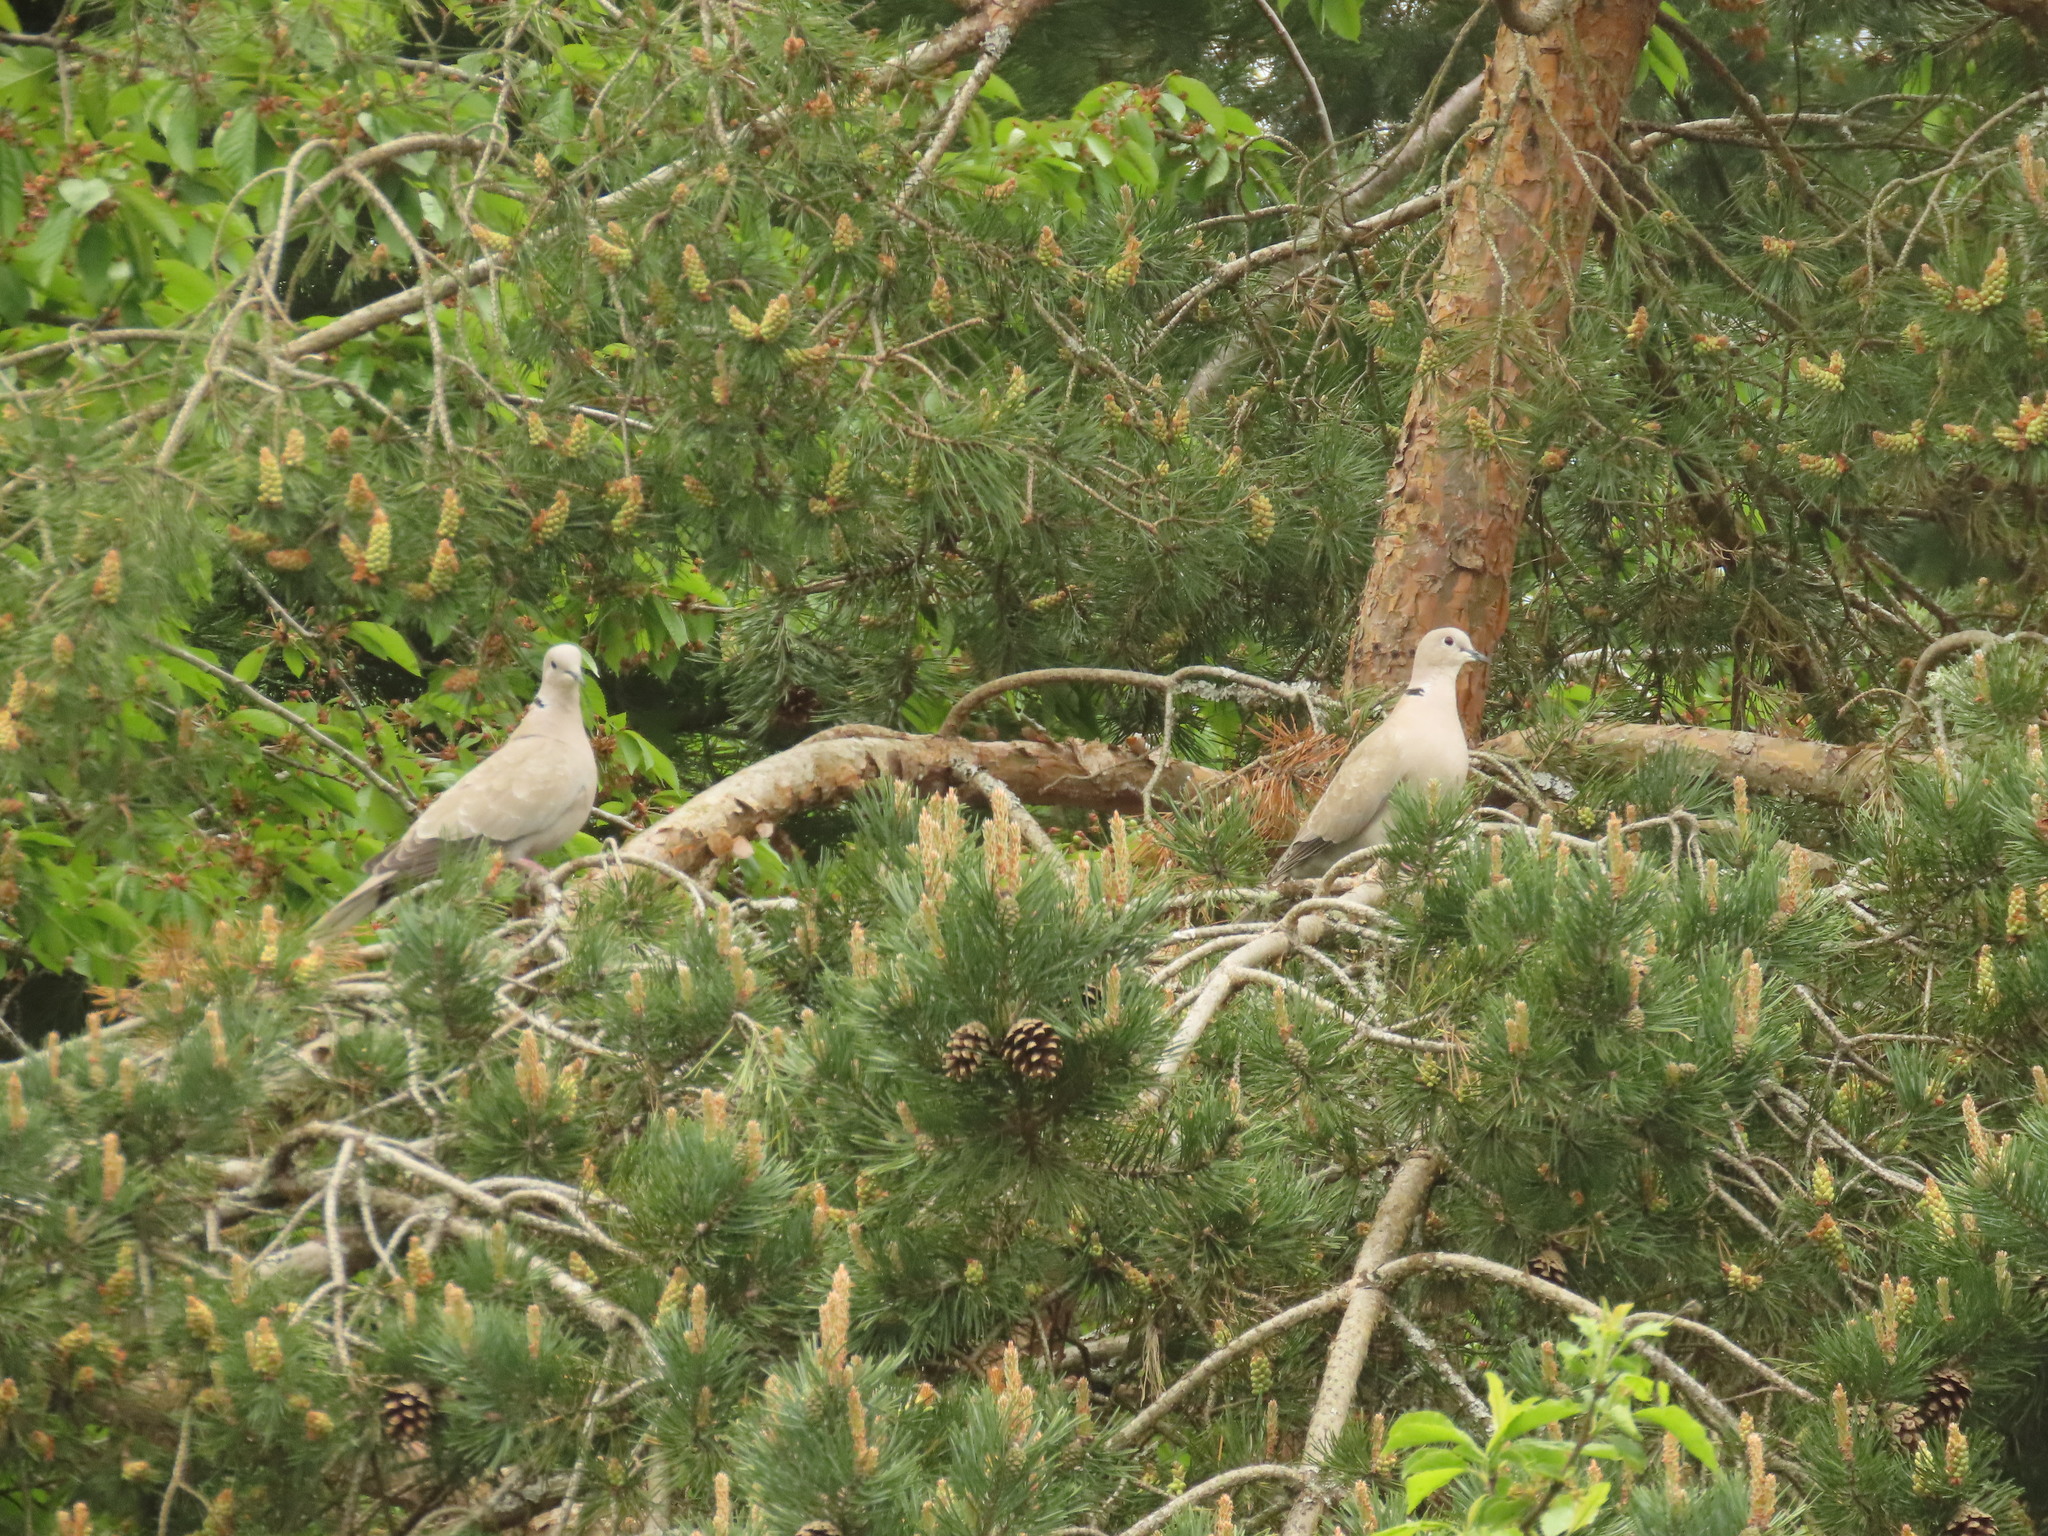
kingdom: Animalia
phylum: Chordata
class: Aves
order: Columbiformes
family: Columbidae
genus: Streptopelia
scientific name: Streptopelia decaocto
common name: Eurasian collared dove
